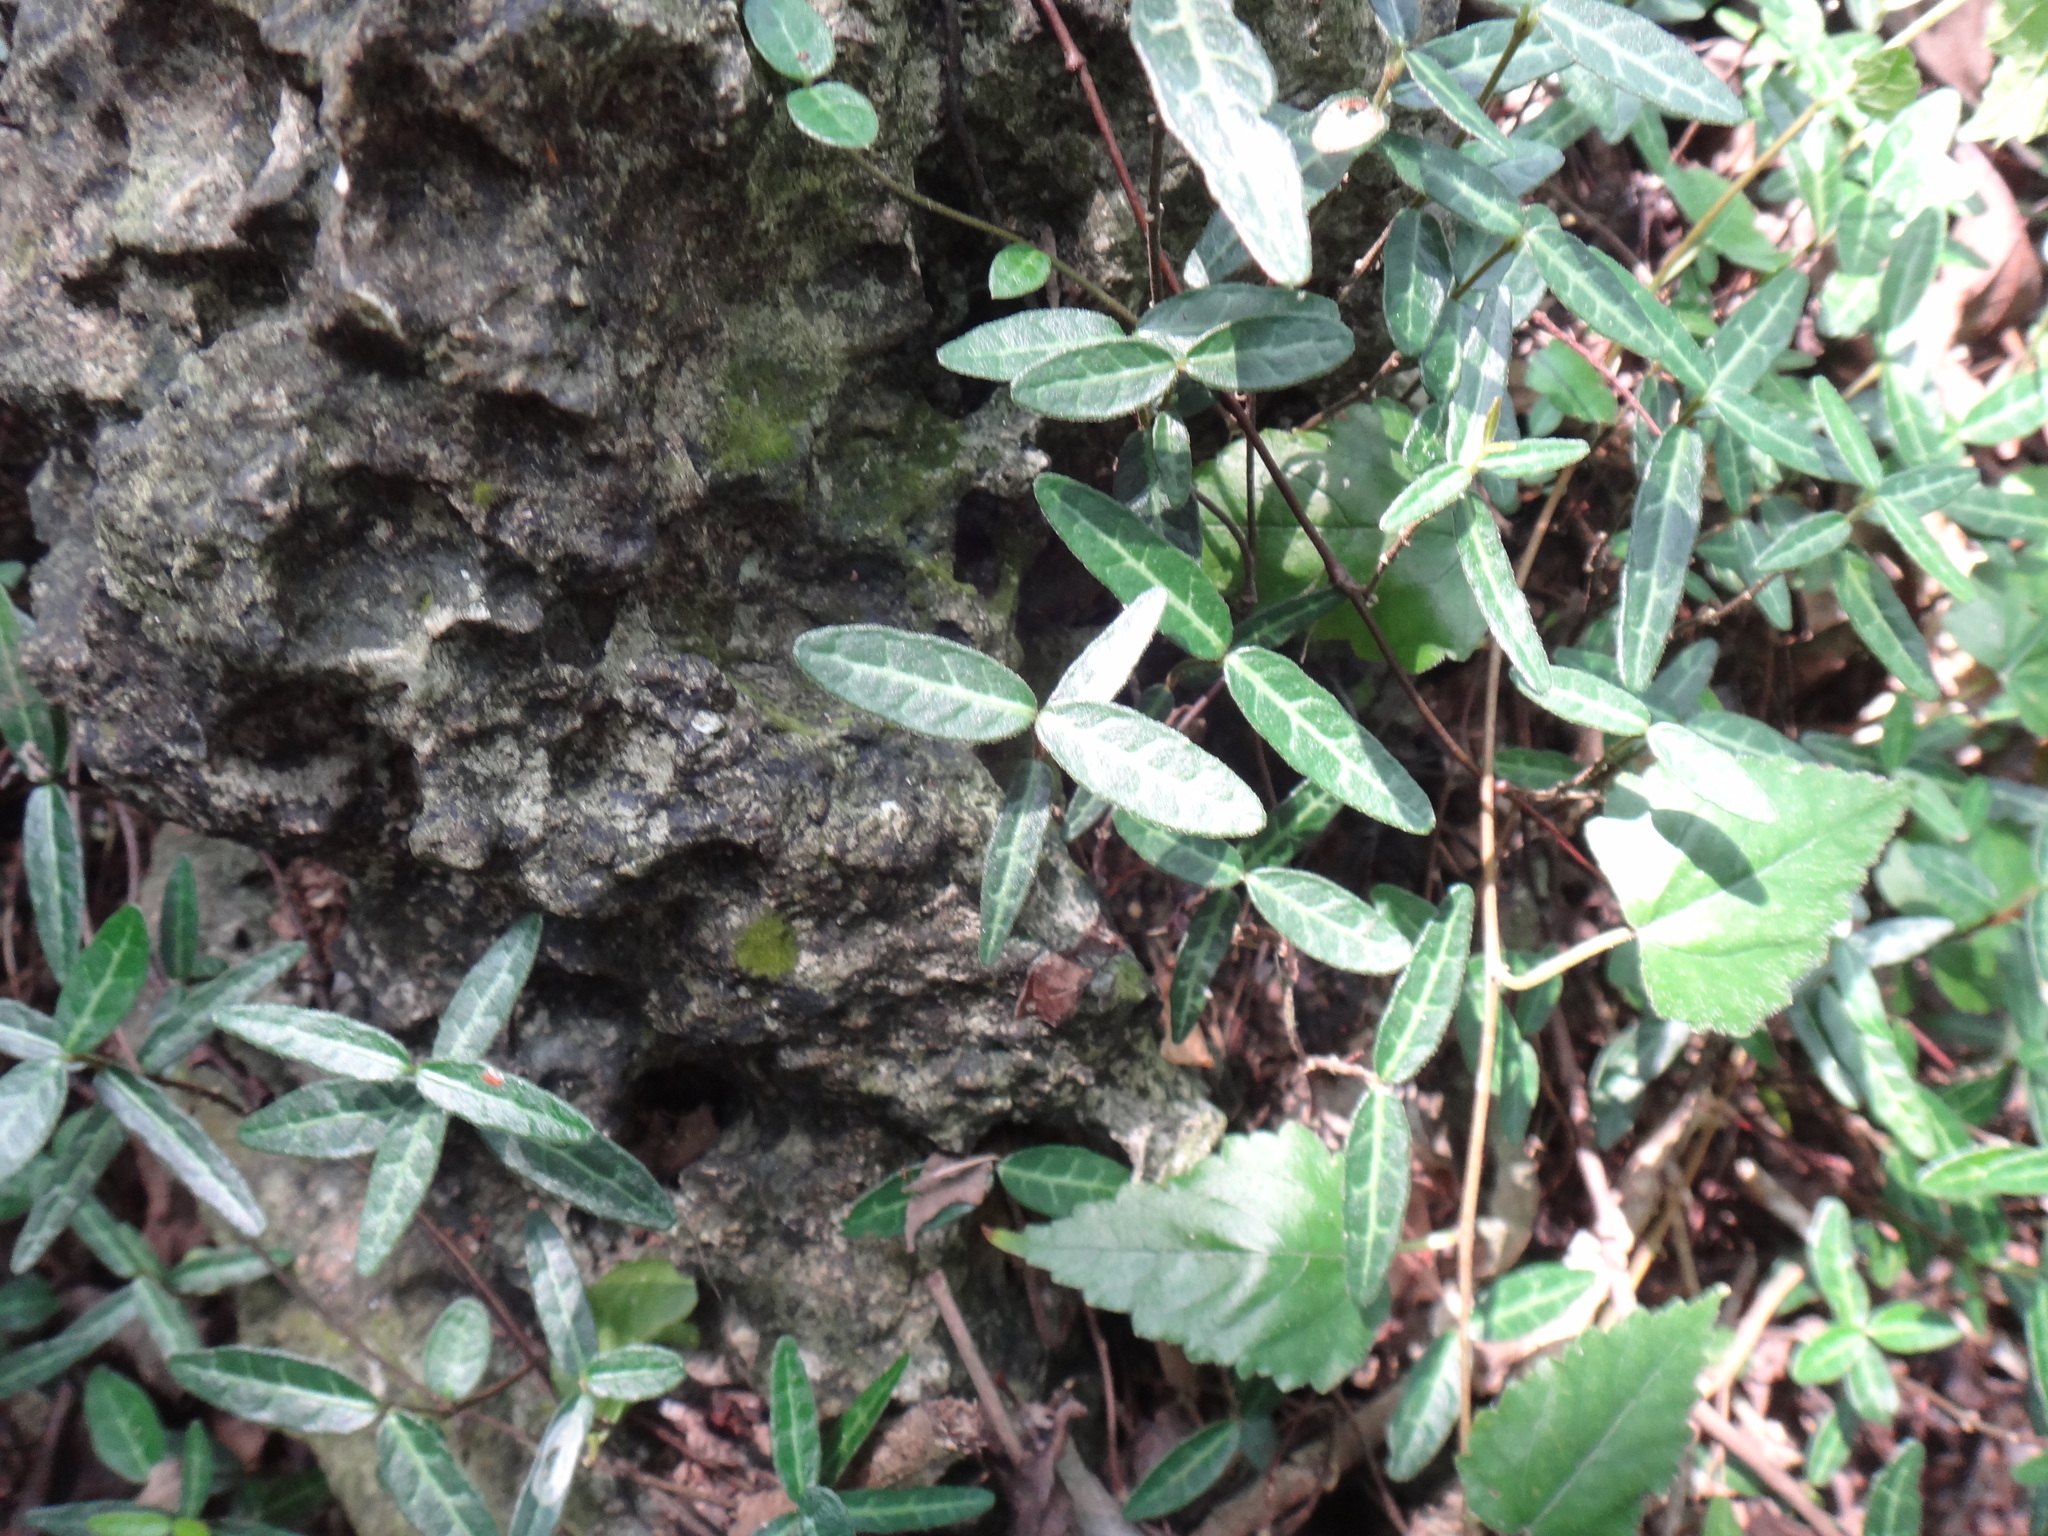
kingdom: Plantae
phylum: Tracheophyta
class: Magnoliopsida
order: Gentianales
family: Apocynaceae
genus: Trachelospermum
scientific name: Trachelospermum asiaticum
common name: Asiatic jasmine
